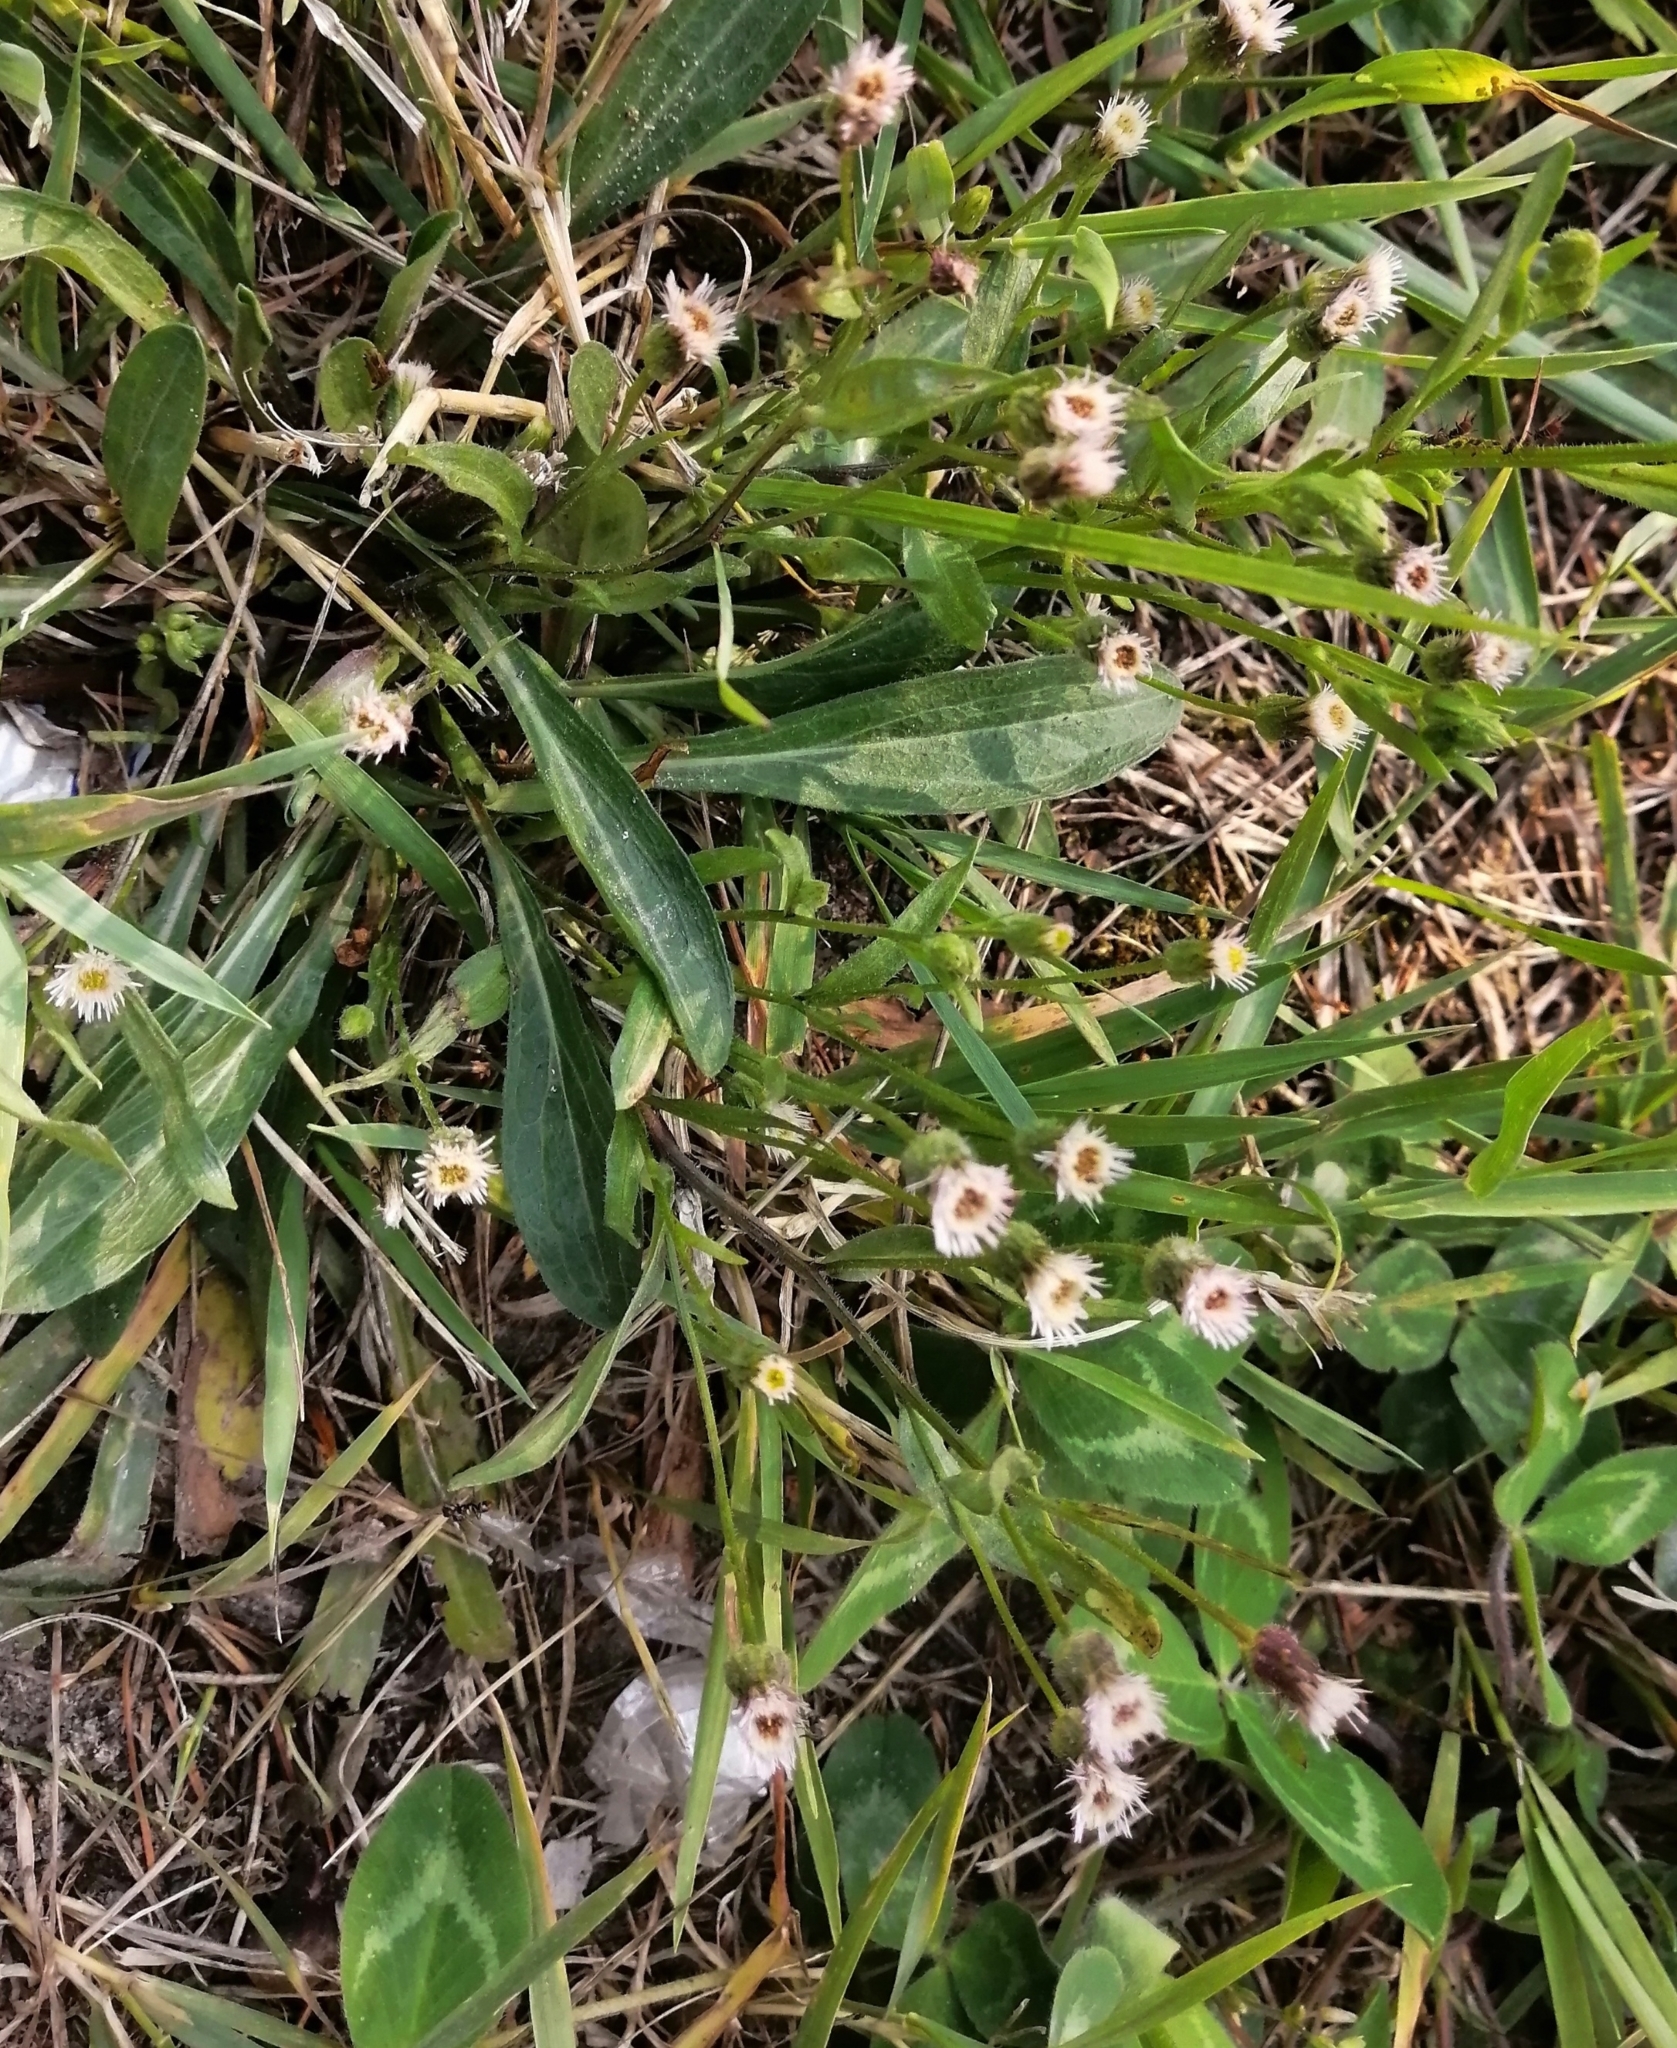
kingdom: Plantae
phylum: Tracheophyta
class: Magnoliopsida
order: Asterales
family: Asteraceae
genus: Erigeron
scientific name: Erigeron acris
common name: Blue fleabane
